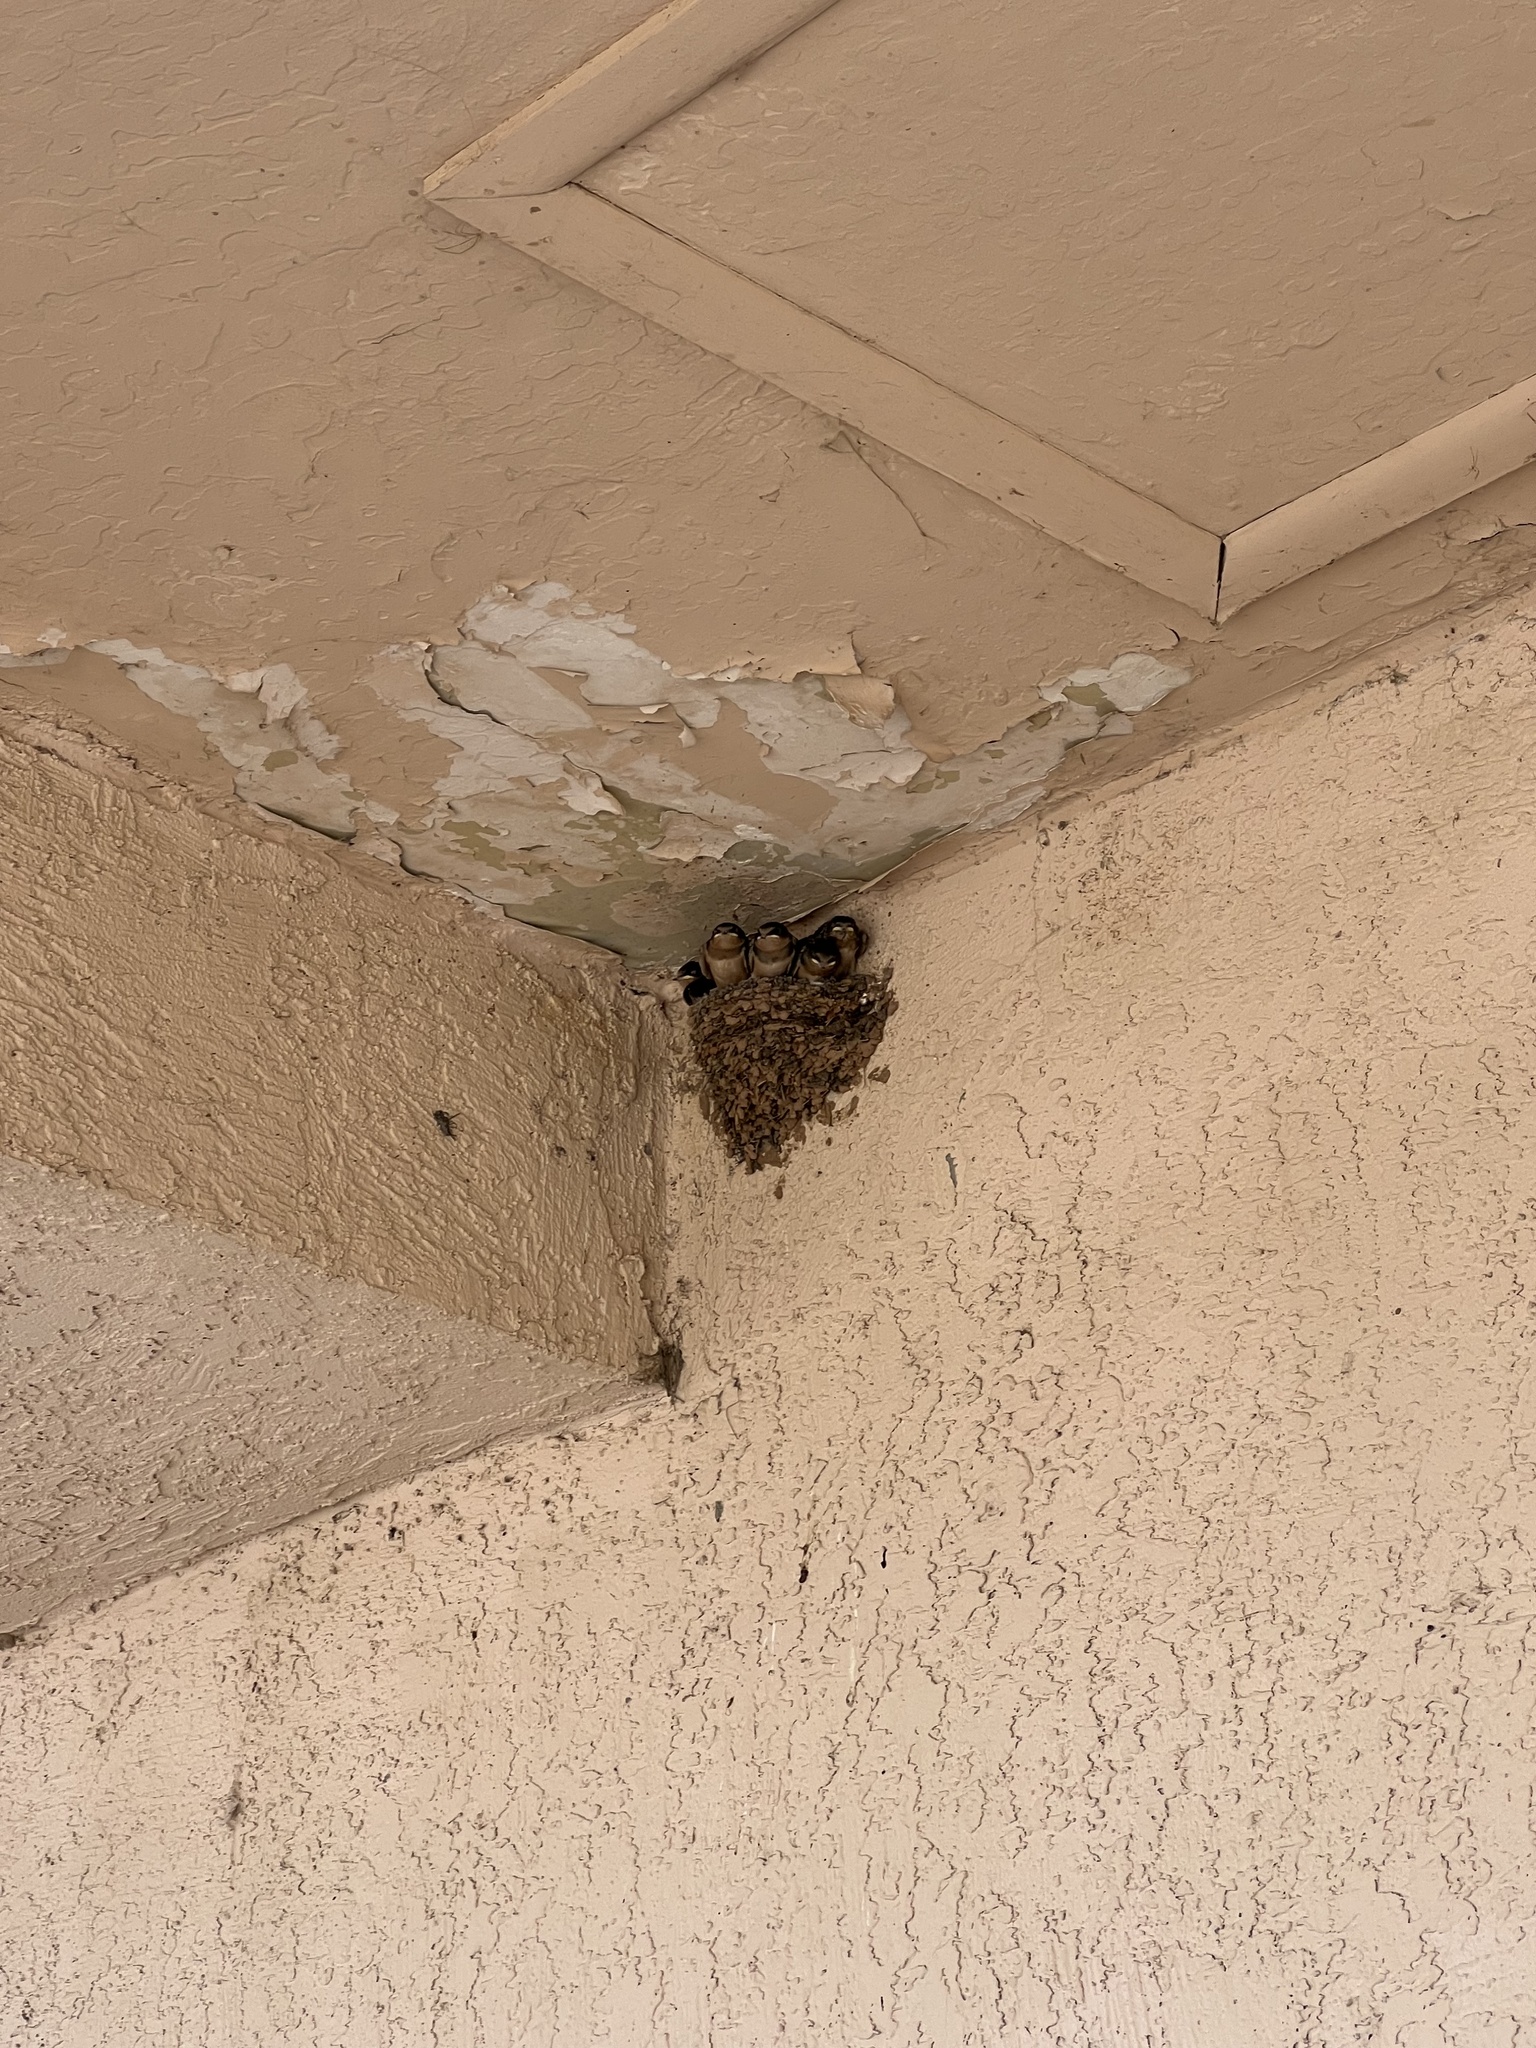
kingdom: Animalia
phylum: Chordata
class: Aves
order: Passeriformes
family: Hirundinidae
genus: Hirundo
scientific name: Hirundo rustica
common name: Barn swallow
